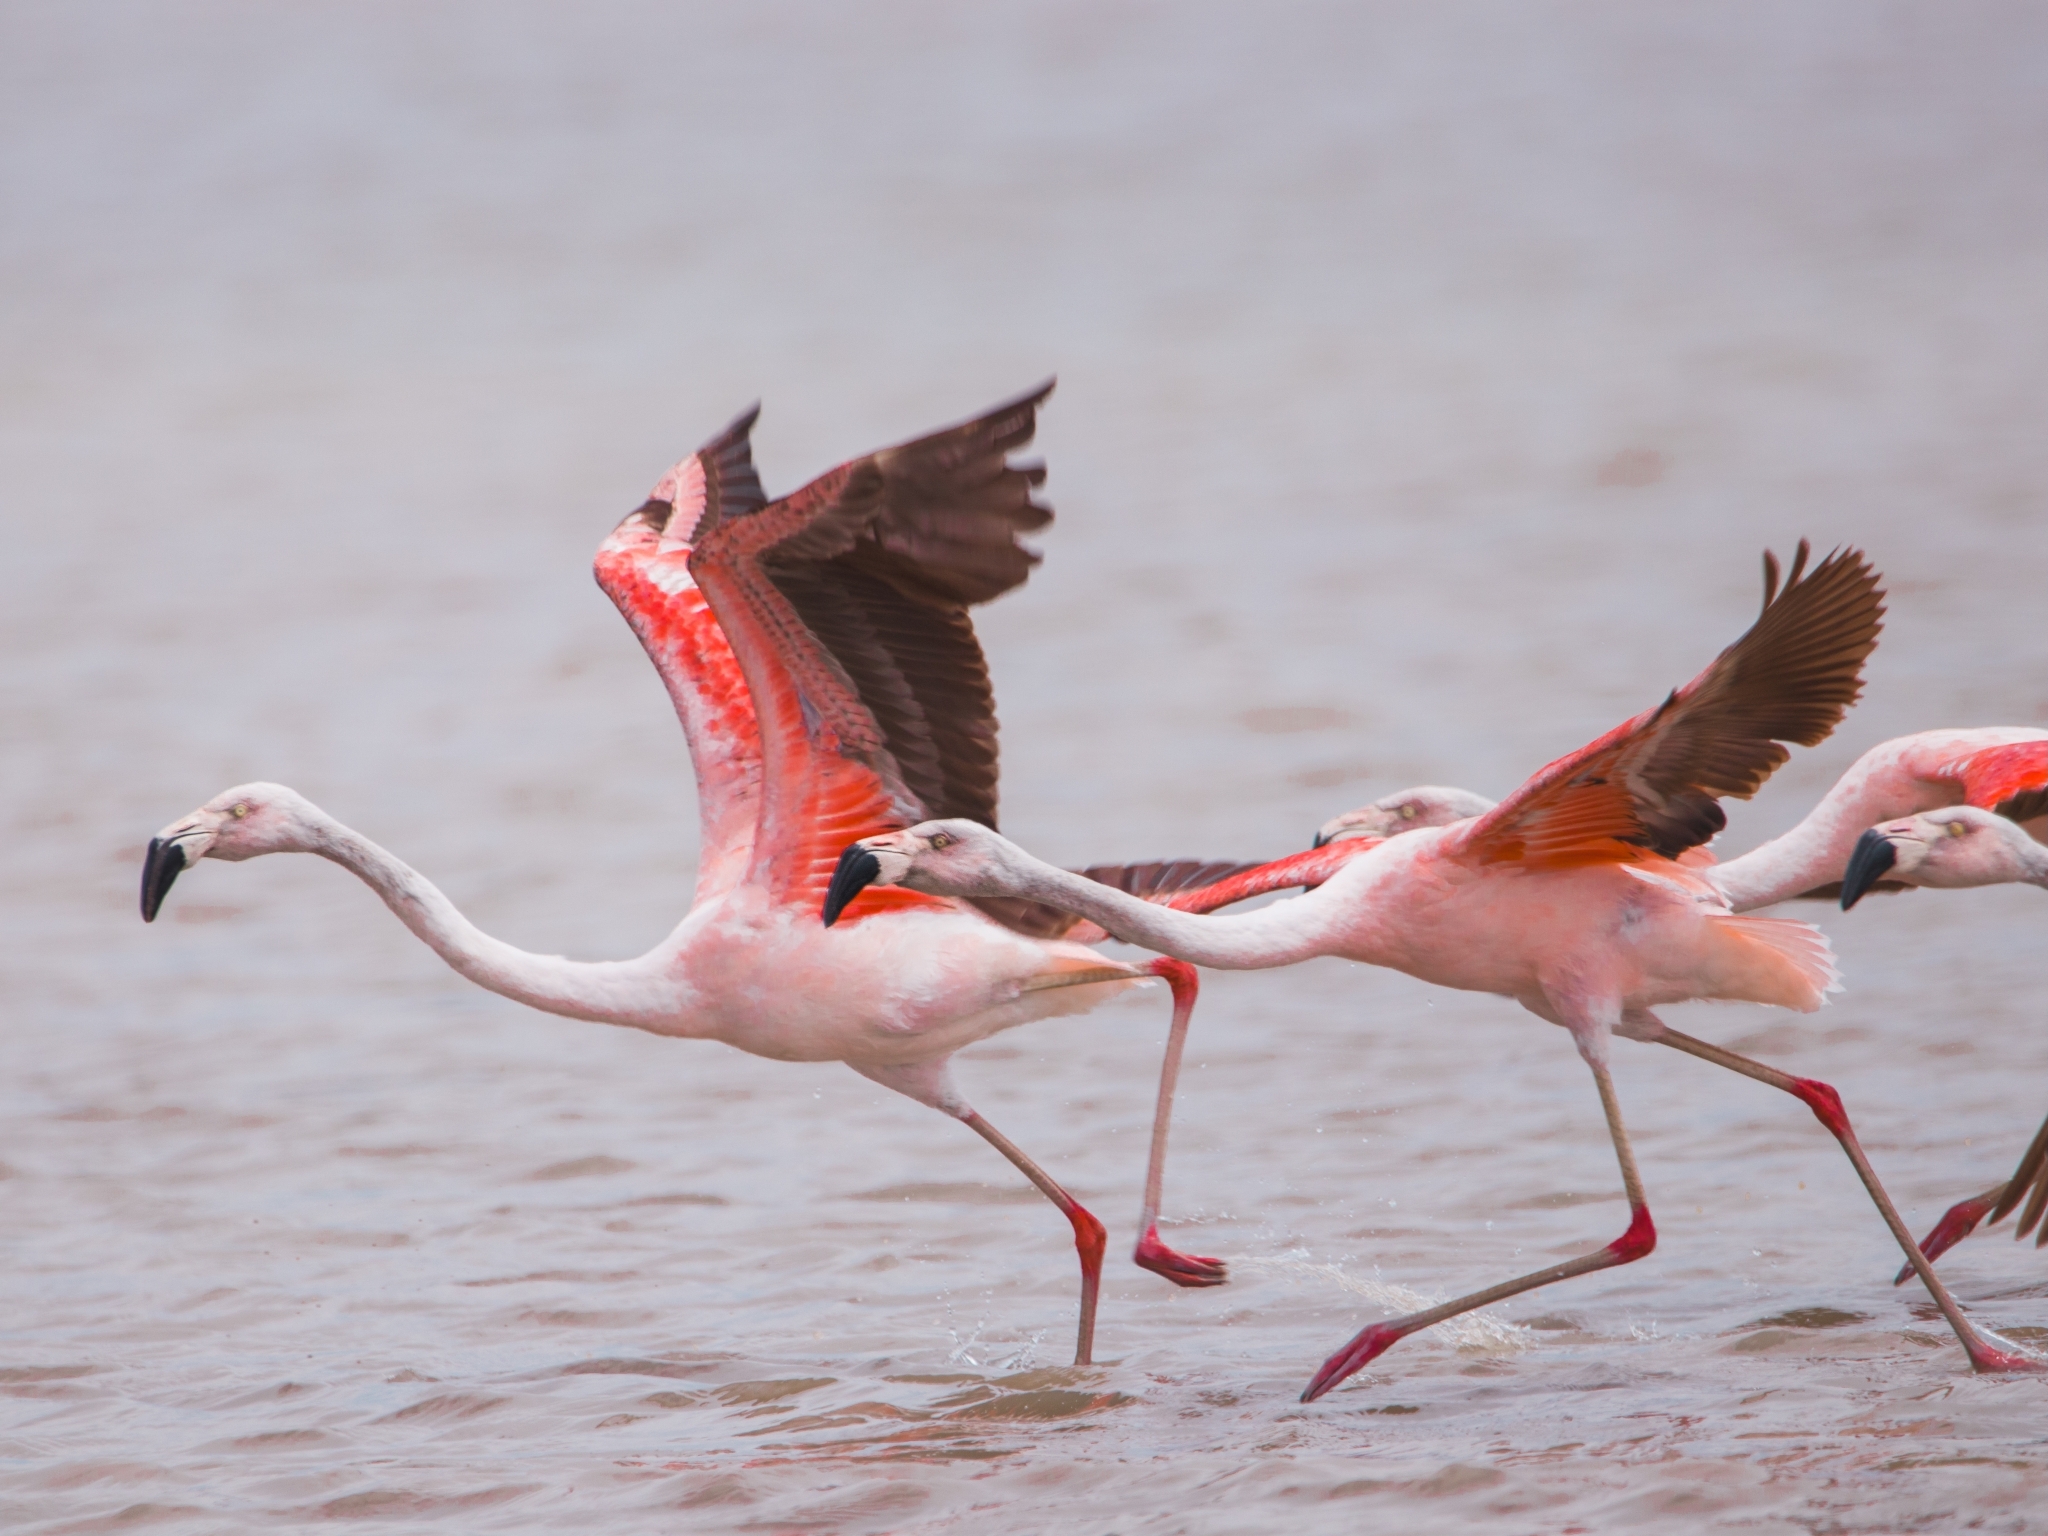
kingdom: Animalia
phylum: Chordata
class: Aves
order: Phoenicopteriformes
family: Phoenicopteridae
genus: Phoenicopterus
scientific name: Phoenicopterus chilensis
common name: Chilean flamingo
